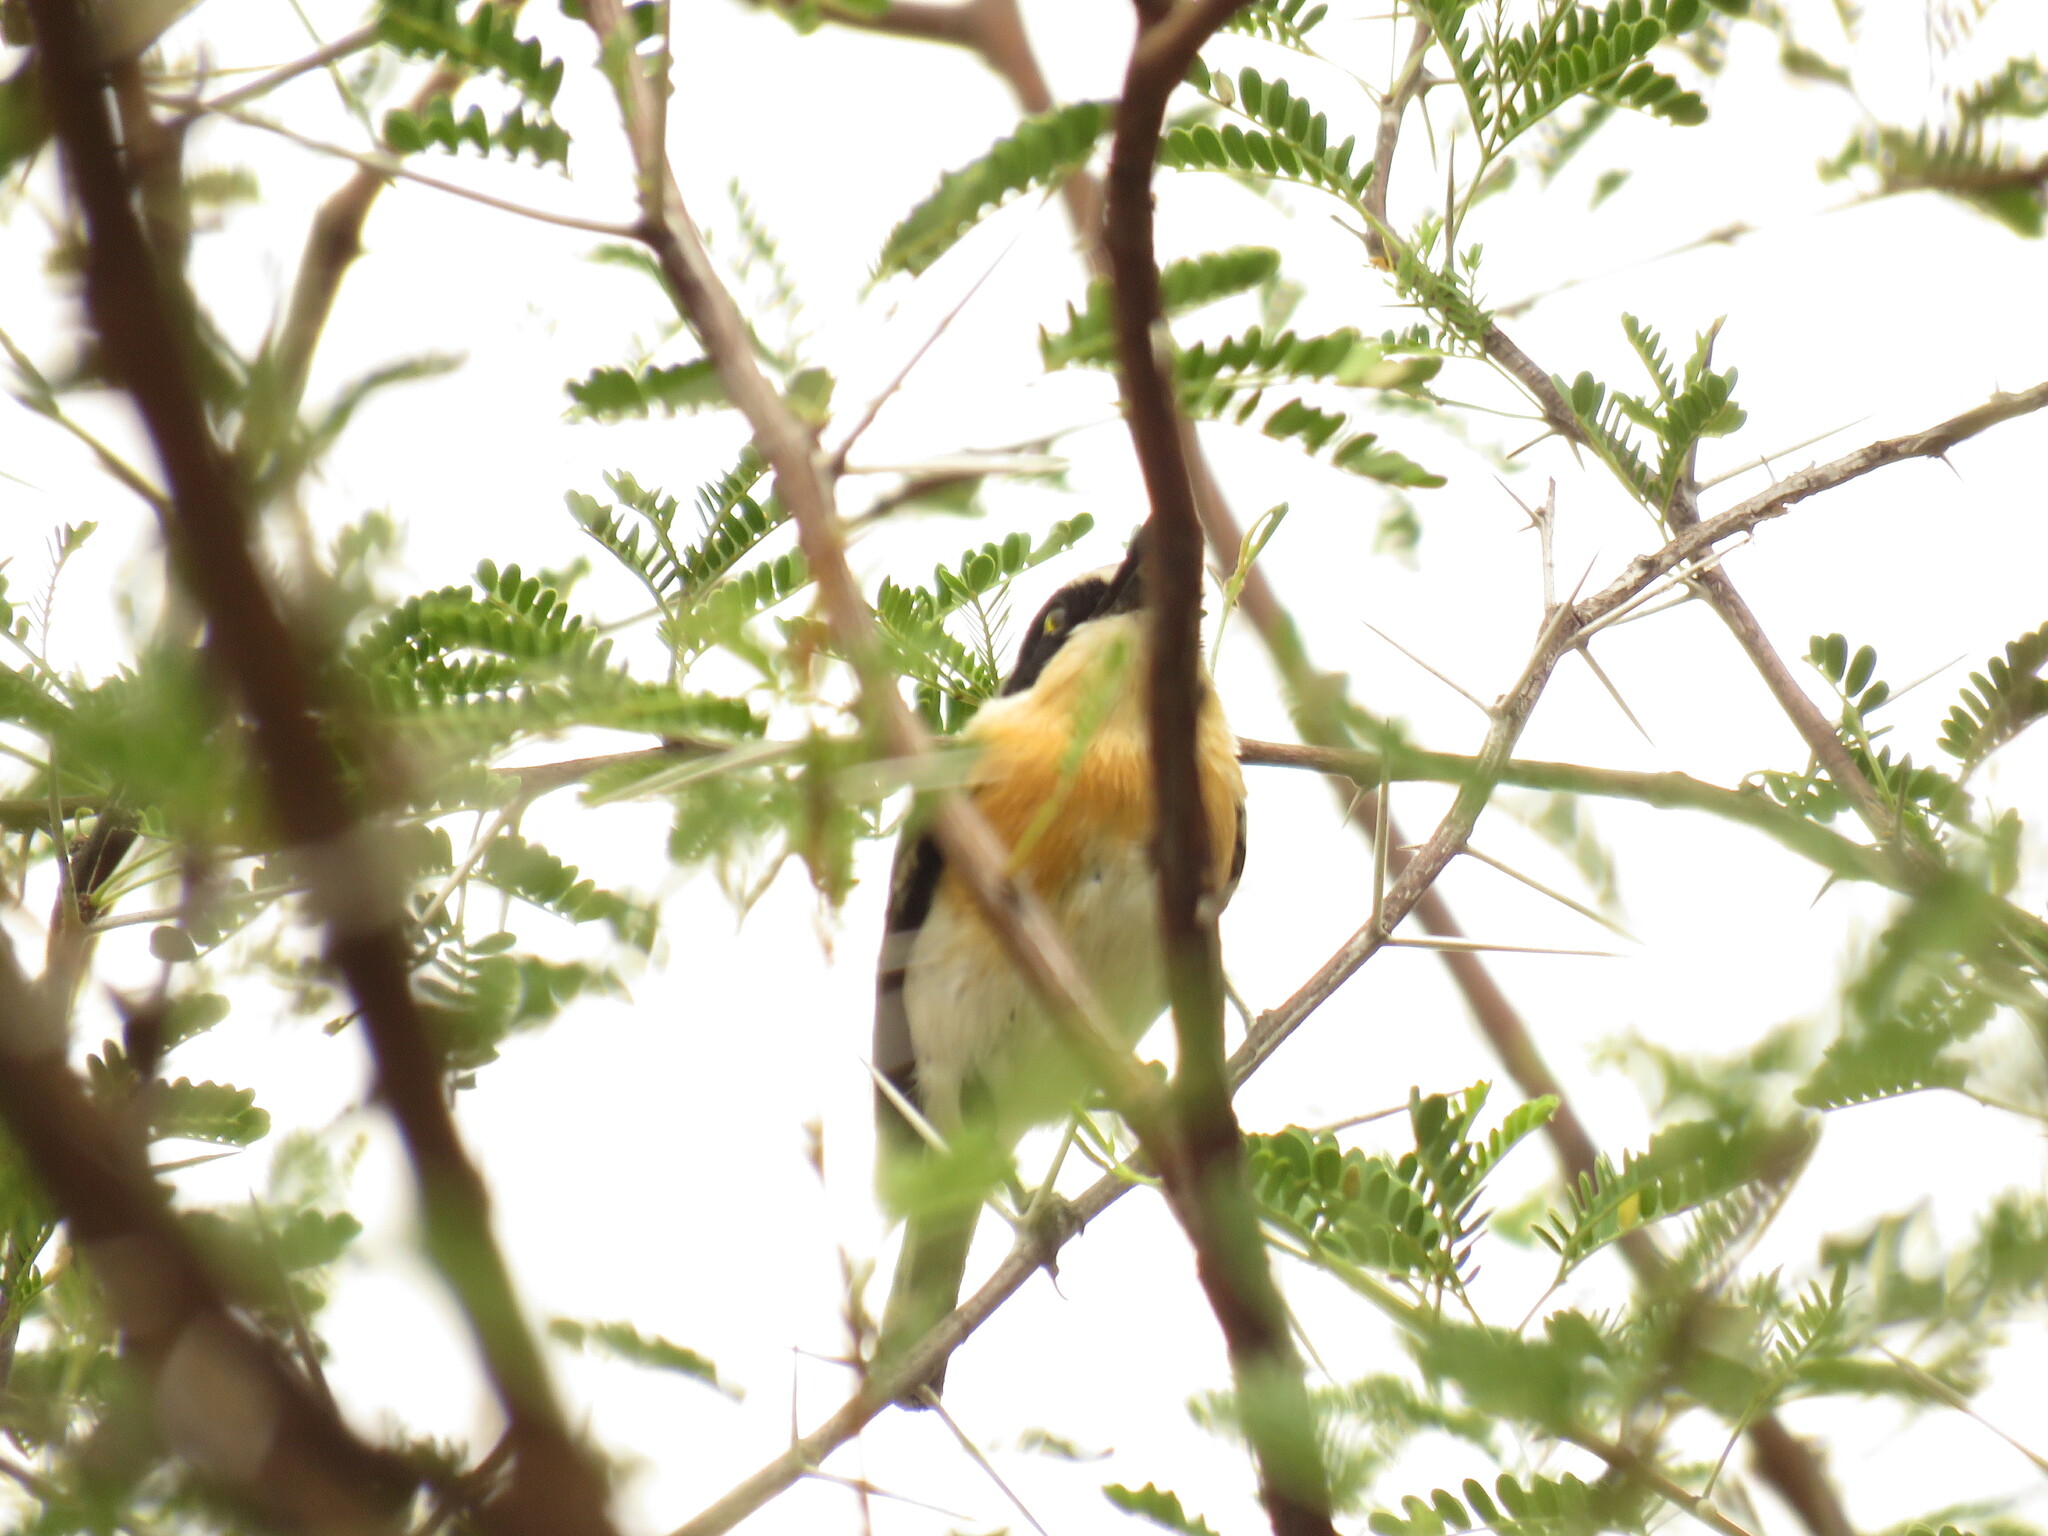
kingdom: Animalia
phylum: Chordata
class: Aves
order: Passeriformes
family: Platysteiridae
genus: Batis
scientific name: Batis pririt
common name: Pririt batis
